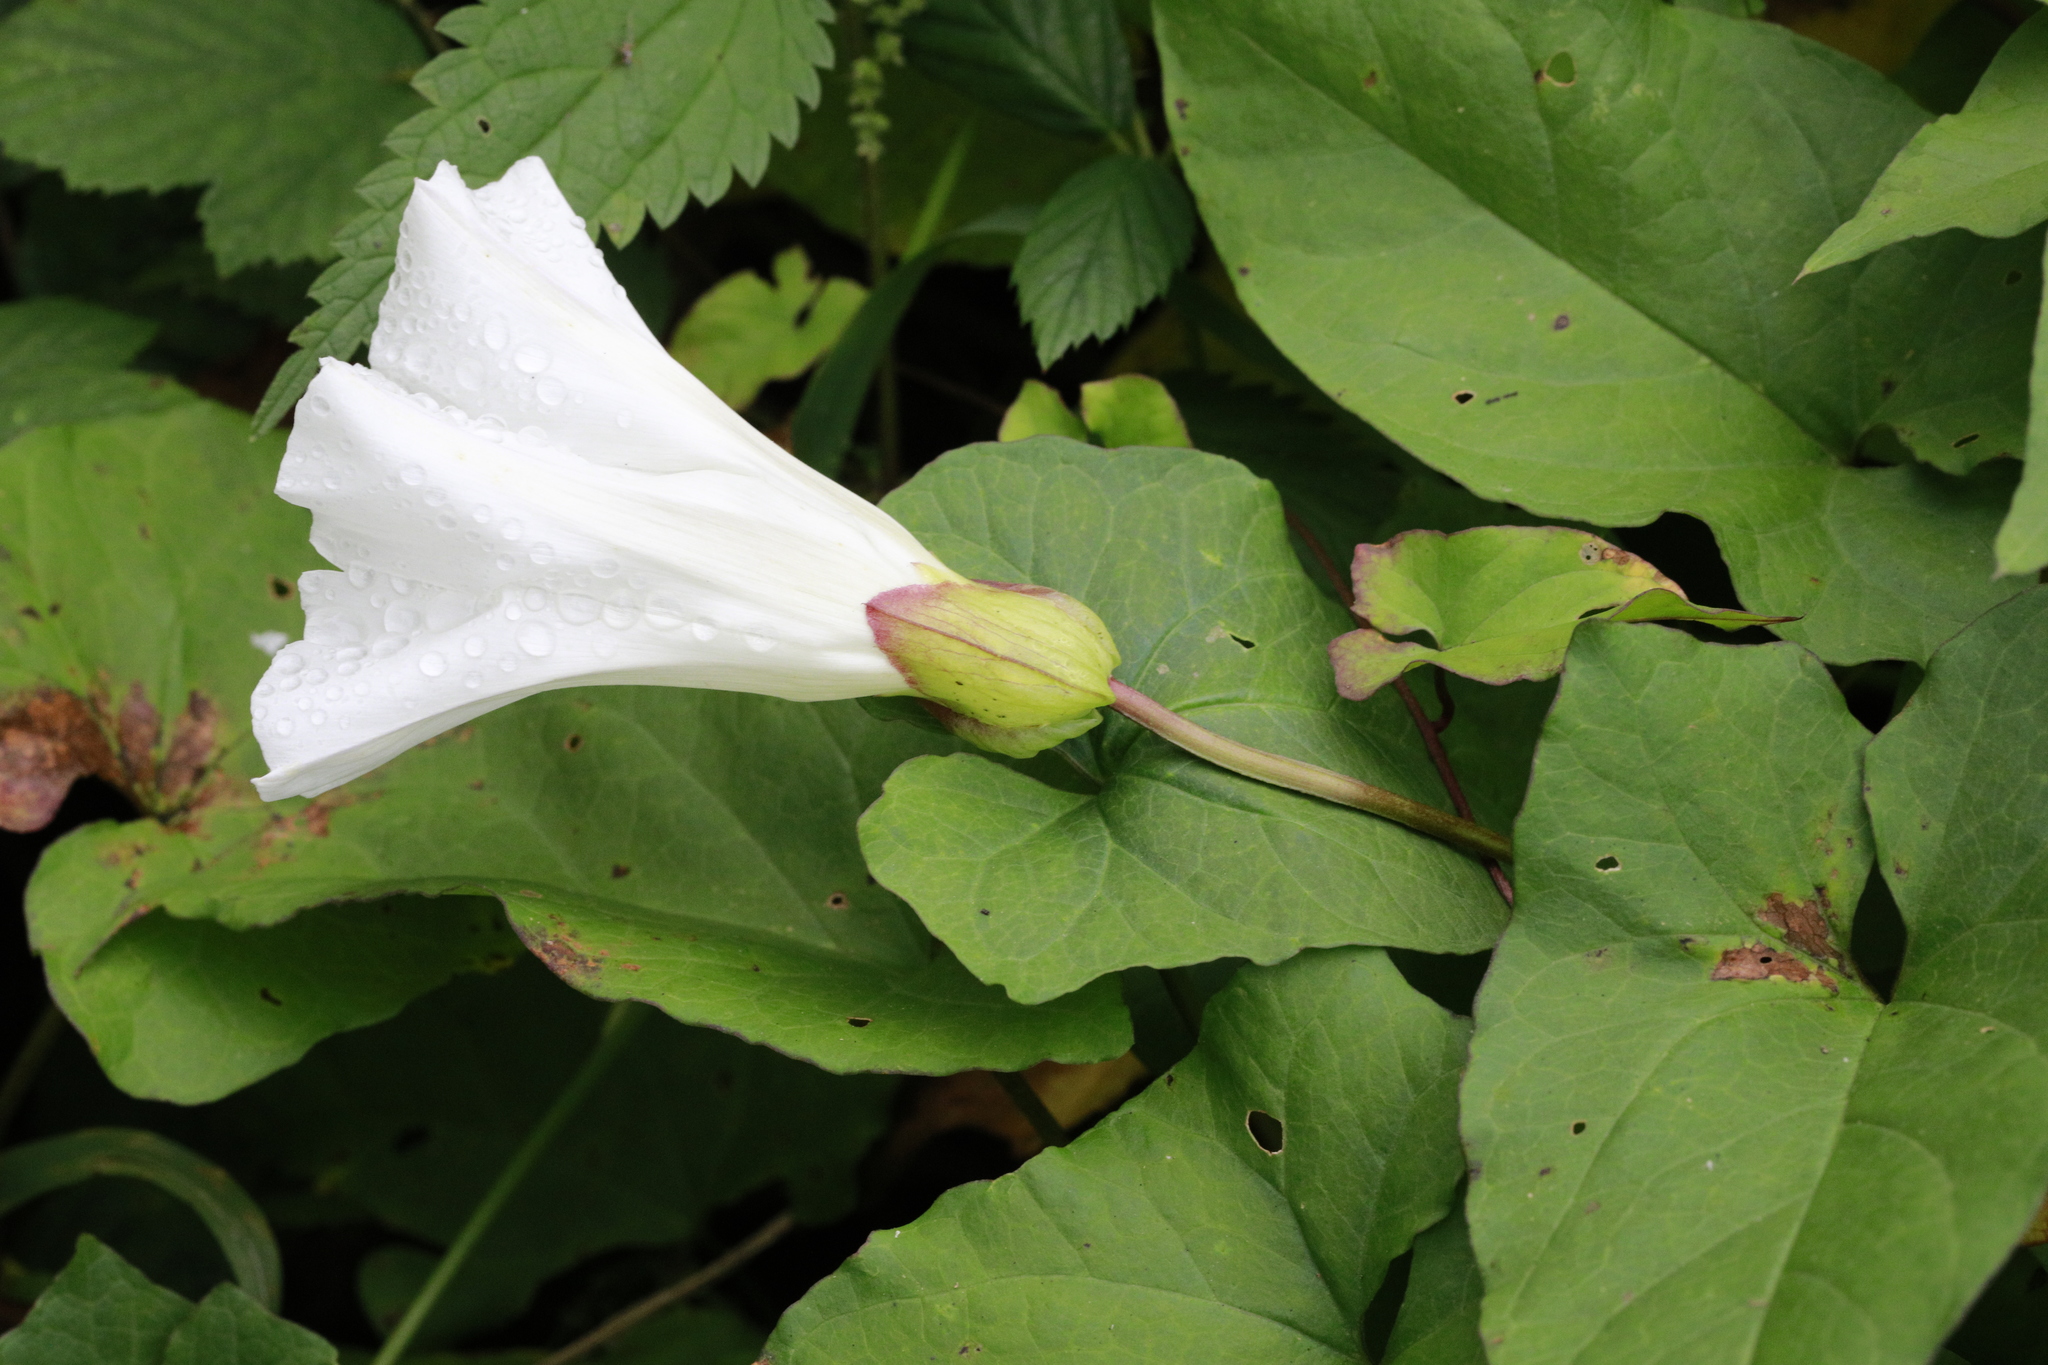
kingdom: Plantae
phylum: Tracheophyta
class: Magnoliopsida
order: Solanales
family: Convolvulaceae
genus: Calystegia
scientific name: Calystegia silvatica
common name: Large bindweed
